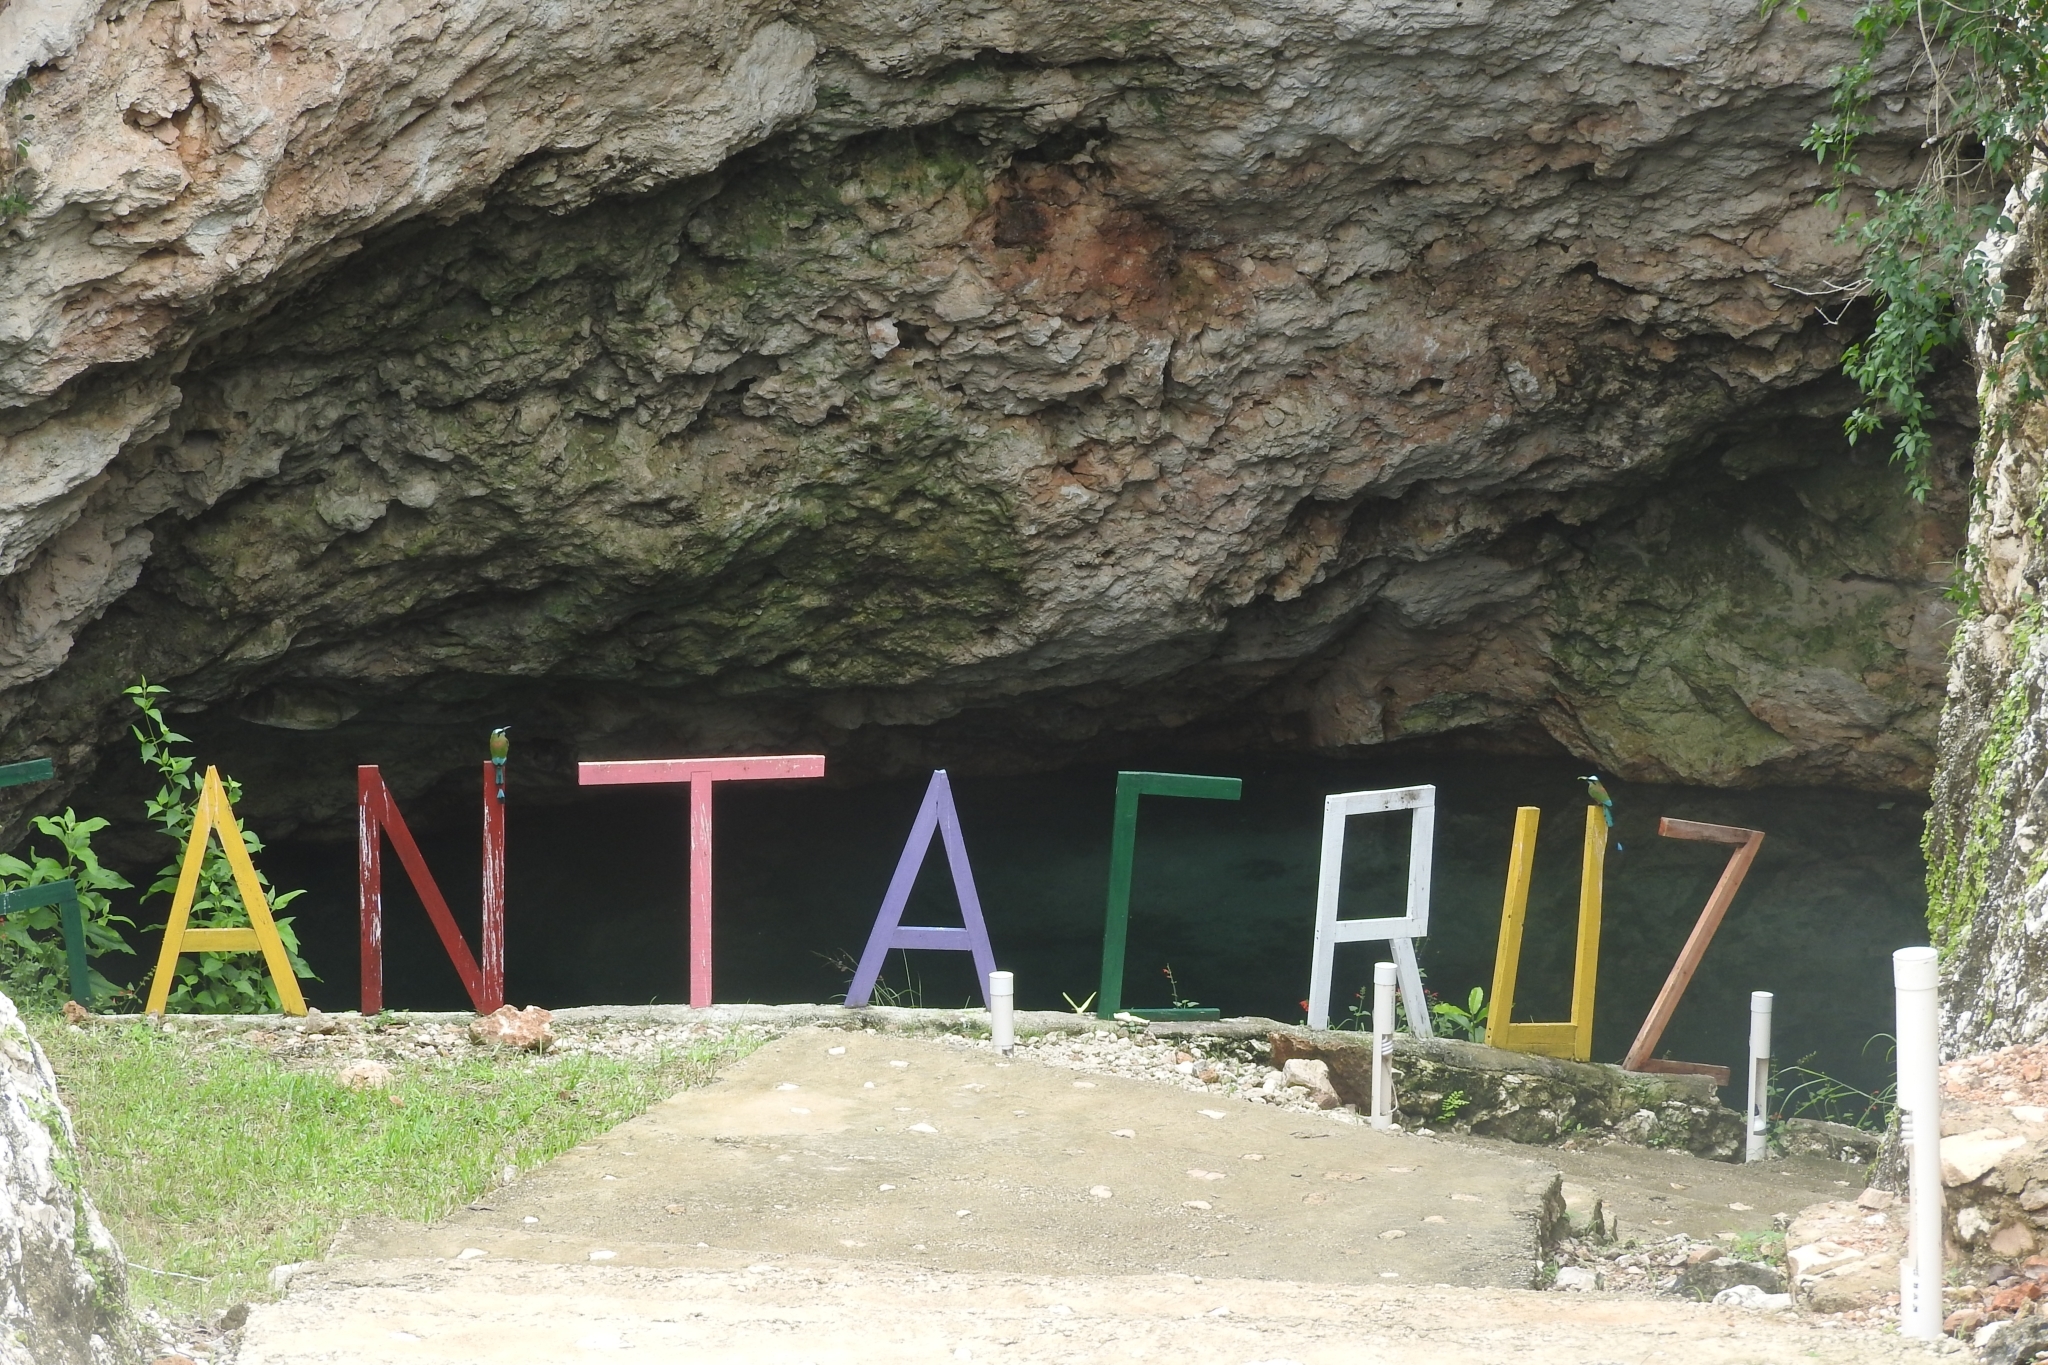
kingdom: Animalia
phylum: Chordata
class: Aves
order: Coraciiformes
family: Momotidae
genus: Eumomota
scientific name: Eumomota superciliosa
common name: Turquoise-browed motmot
